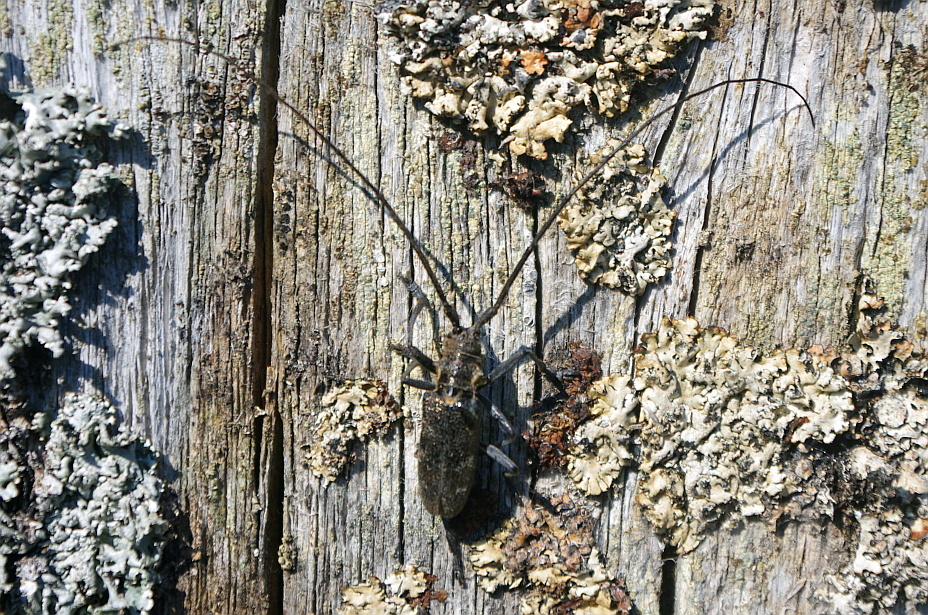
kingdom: Animalia
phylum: Arthropoda
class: Insecta
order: Coleoptera
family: Cerambycidae
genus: Monochamus
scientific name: Monochamus galloprovincialis
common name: Pine sawyer
